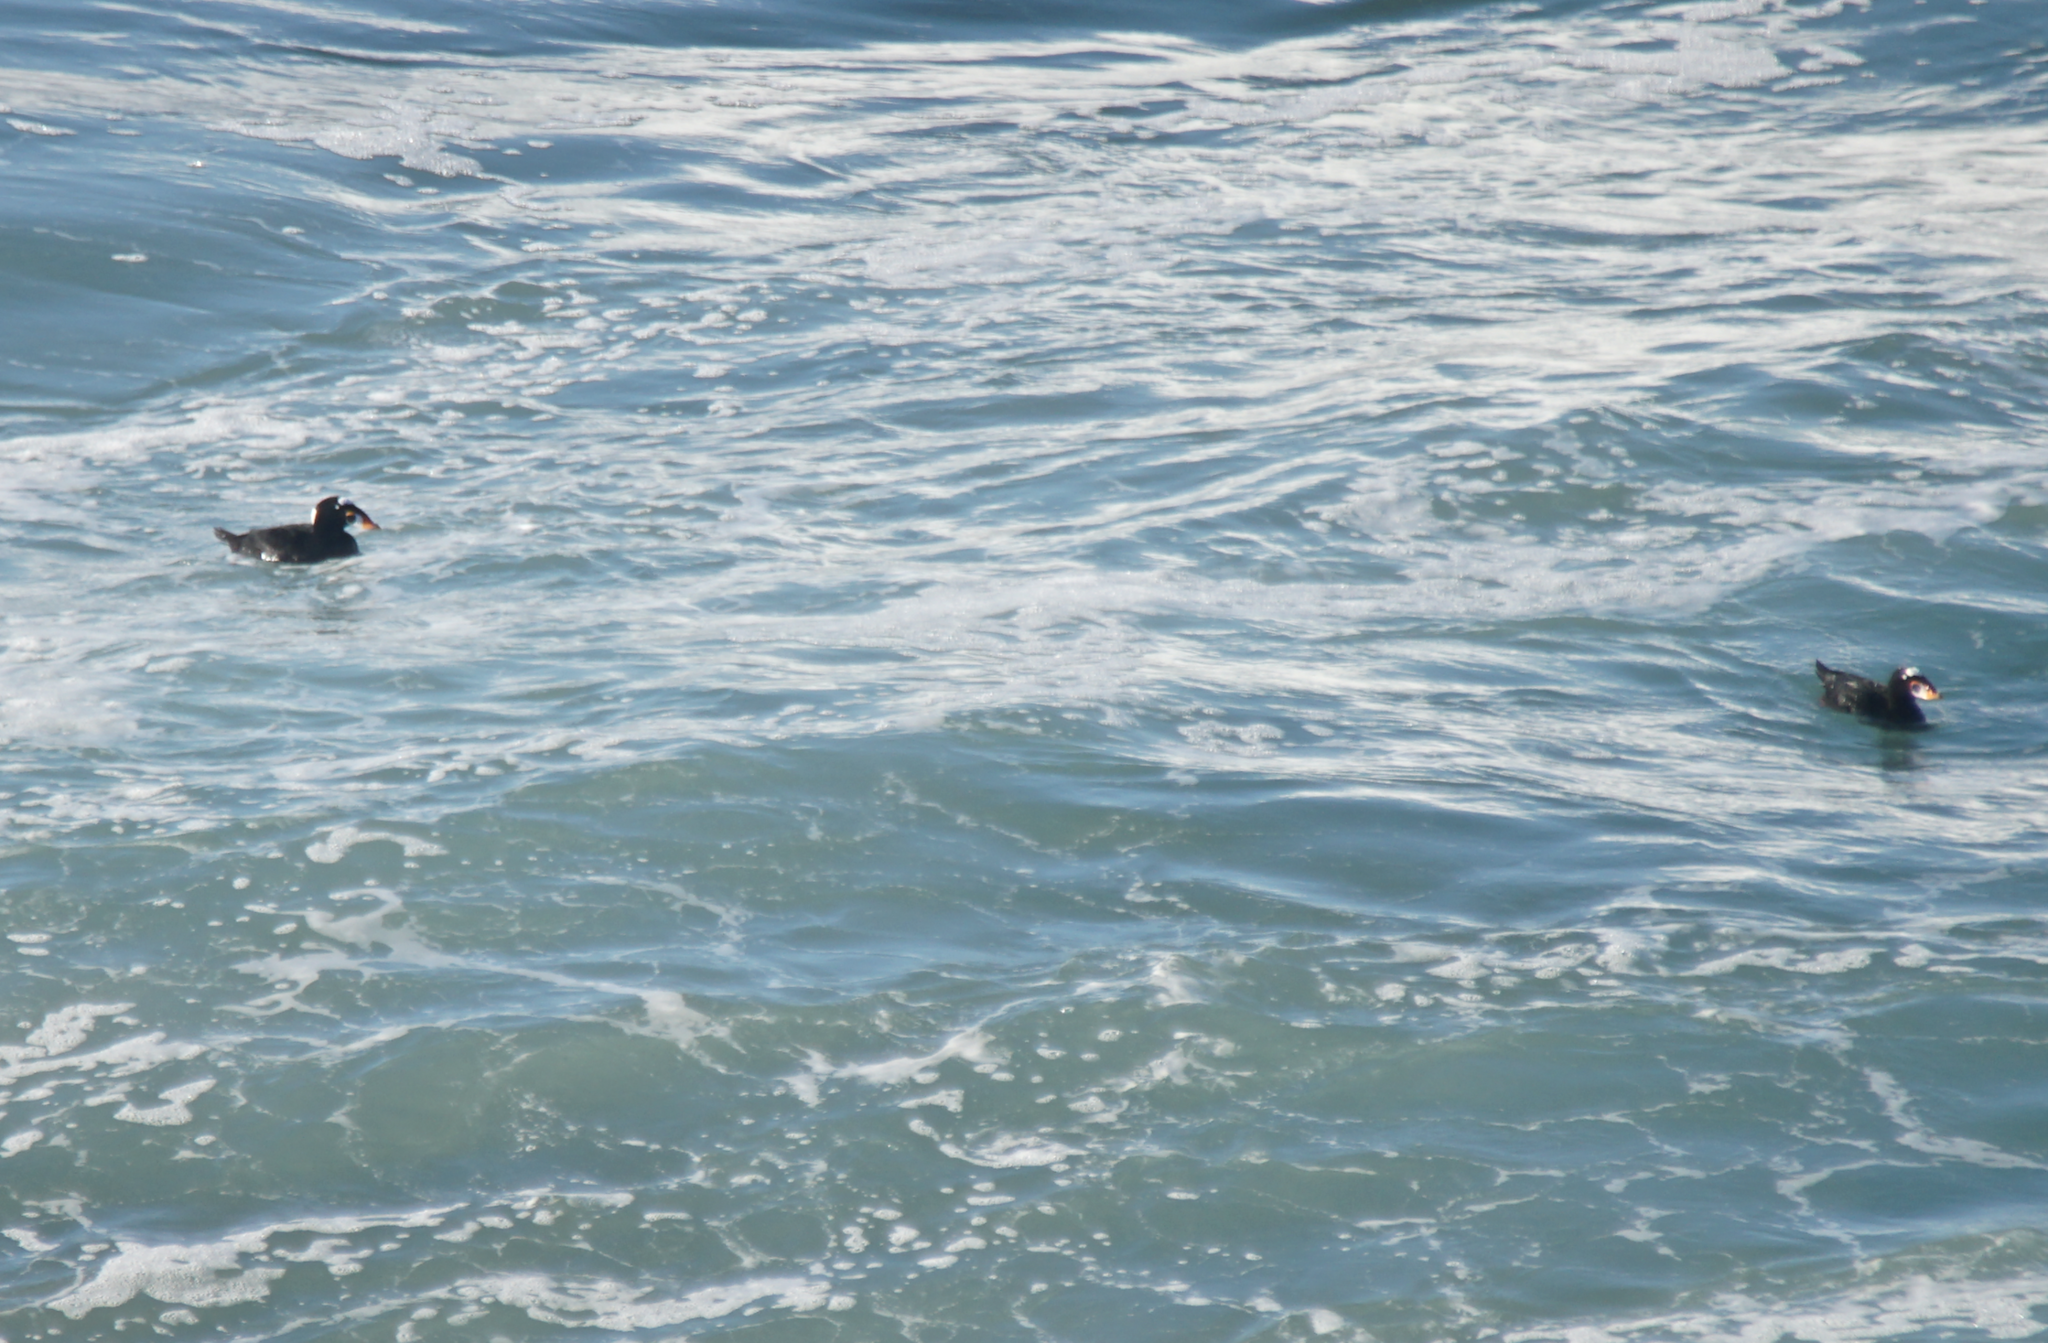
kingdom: Animalia
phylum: Chordata
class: Aves
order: Anseriformes
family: Anatidae
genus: Melanitta
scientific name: Melanitta perspicillata
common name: Surf scoter
